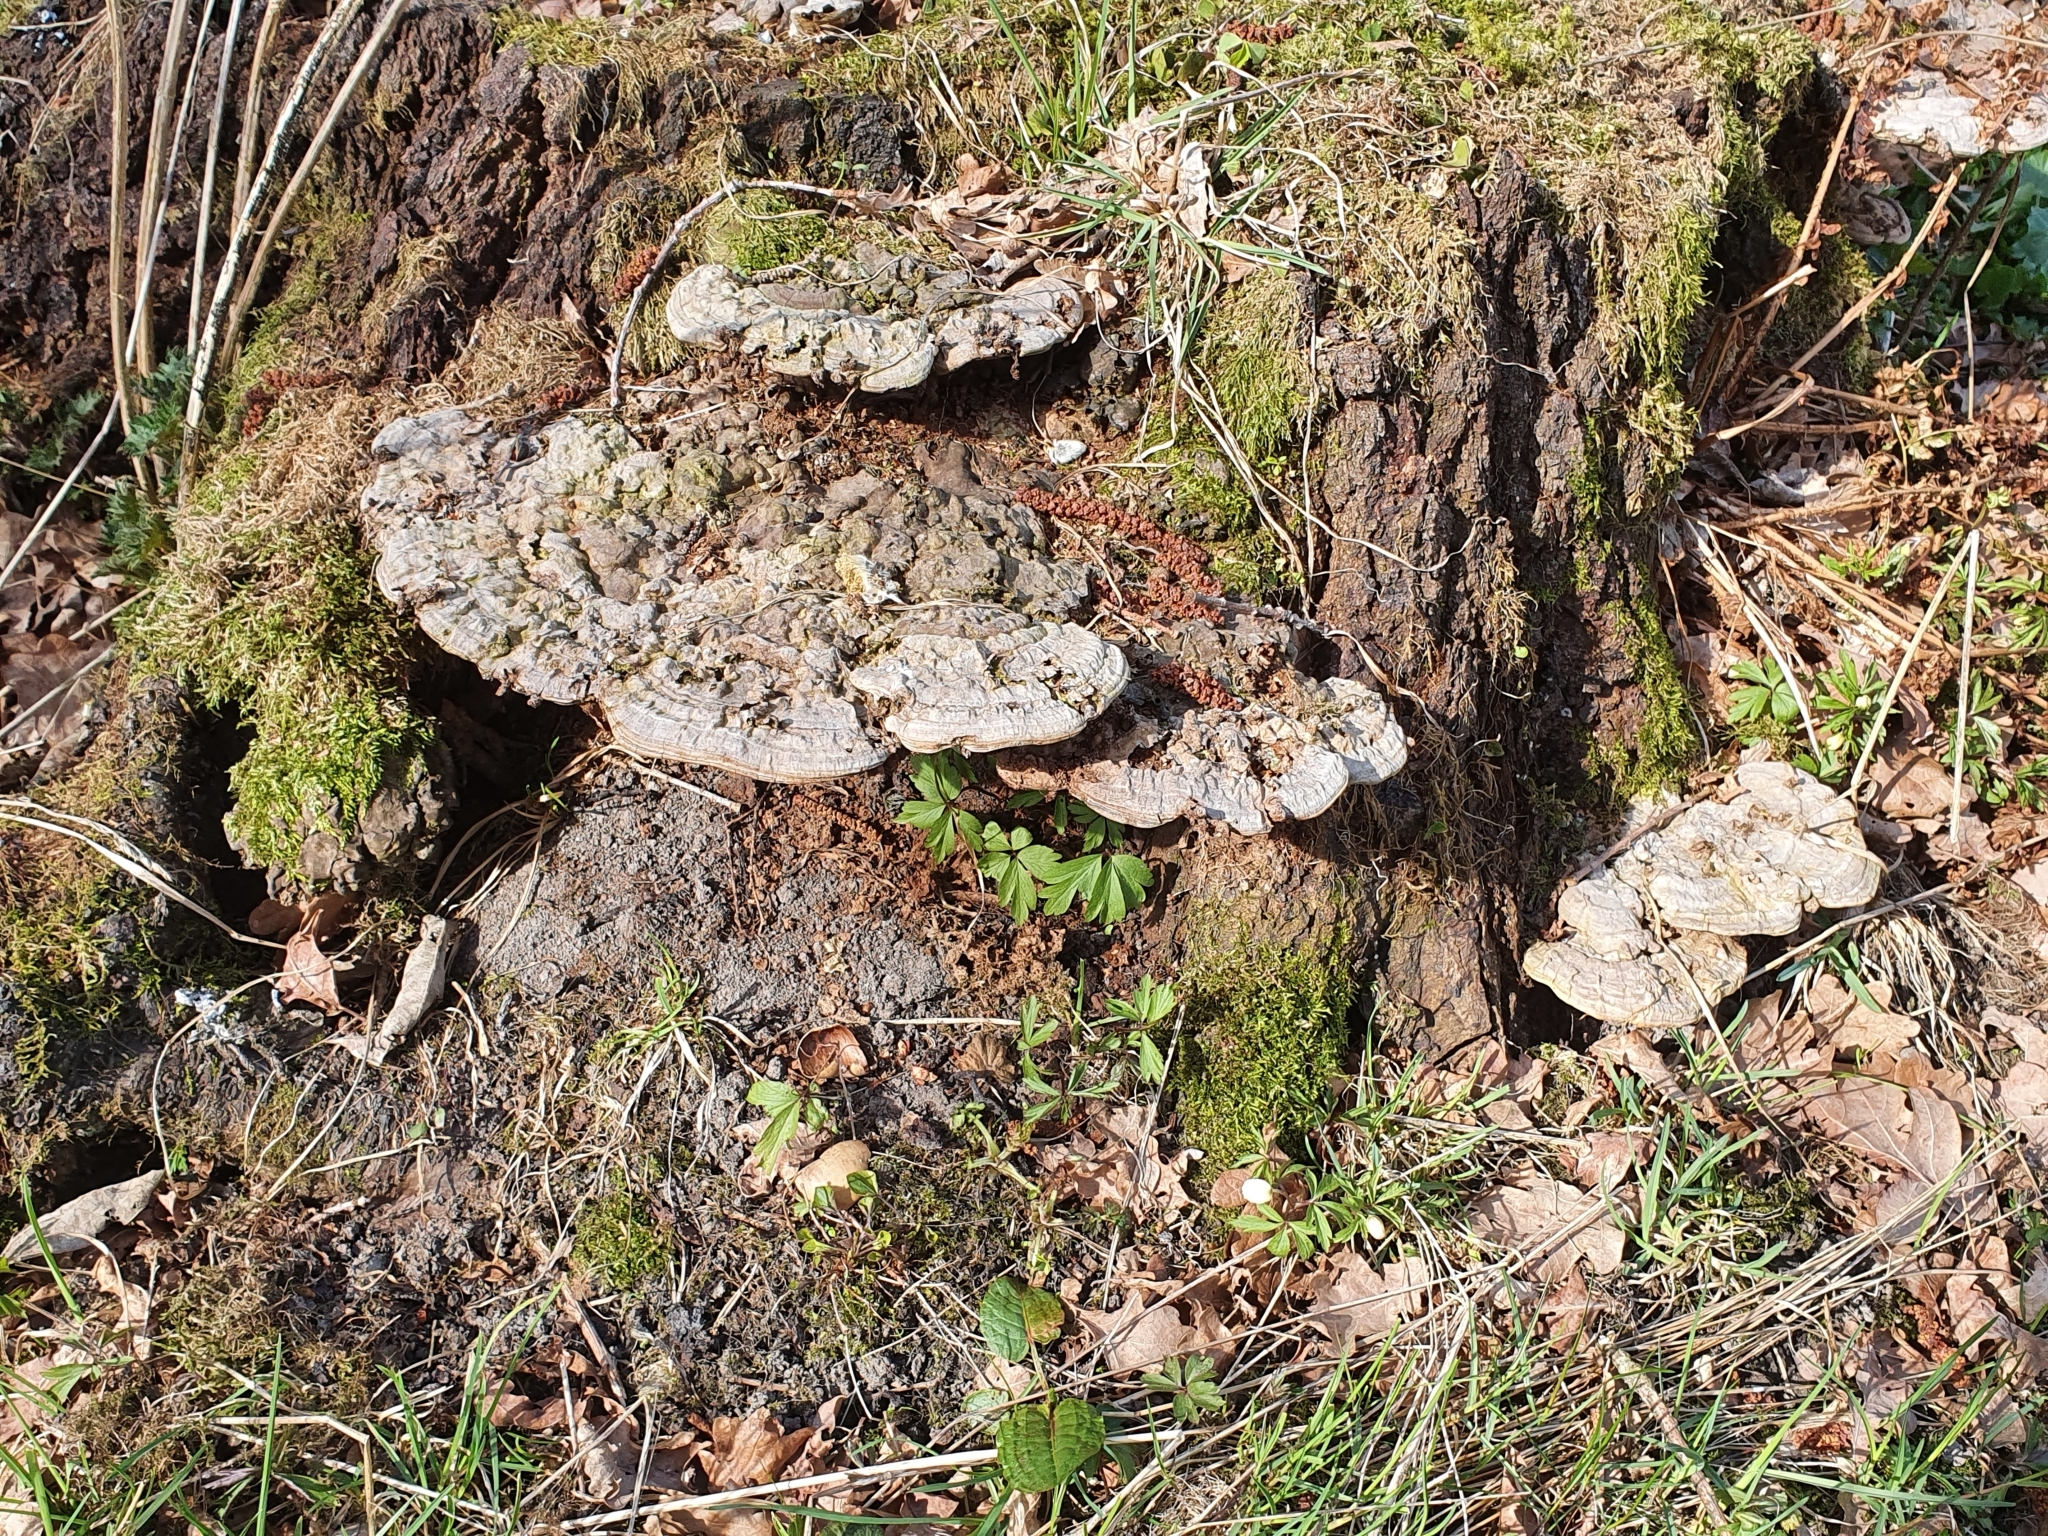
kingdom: Fungi
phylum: Basidiomycota
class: Agaricomycetes
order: Polyporales
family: Polyporaceae
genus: Ganoderma
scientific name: Ganoderma applanatum
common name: Artist's bracket
